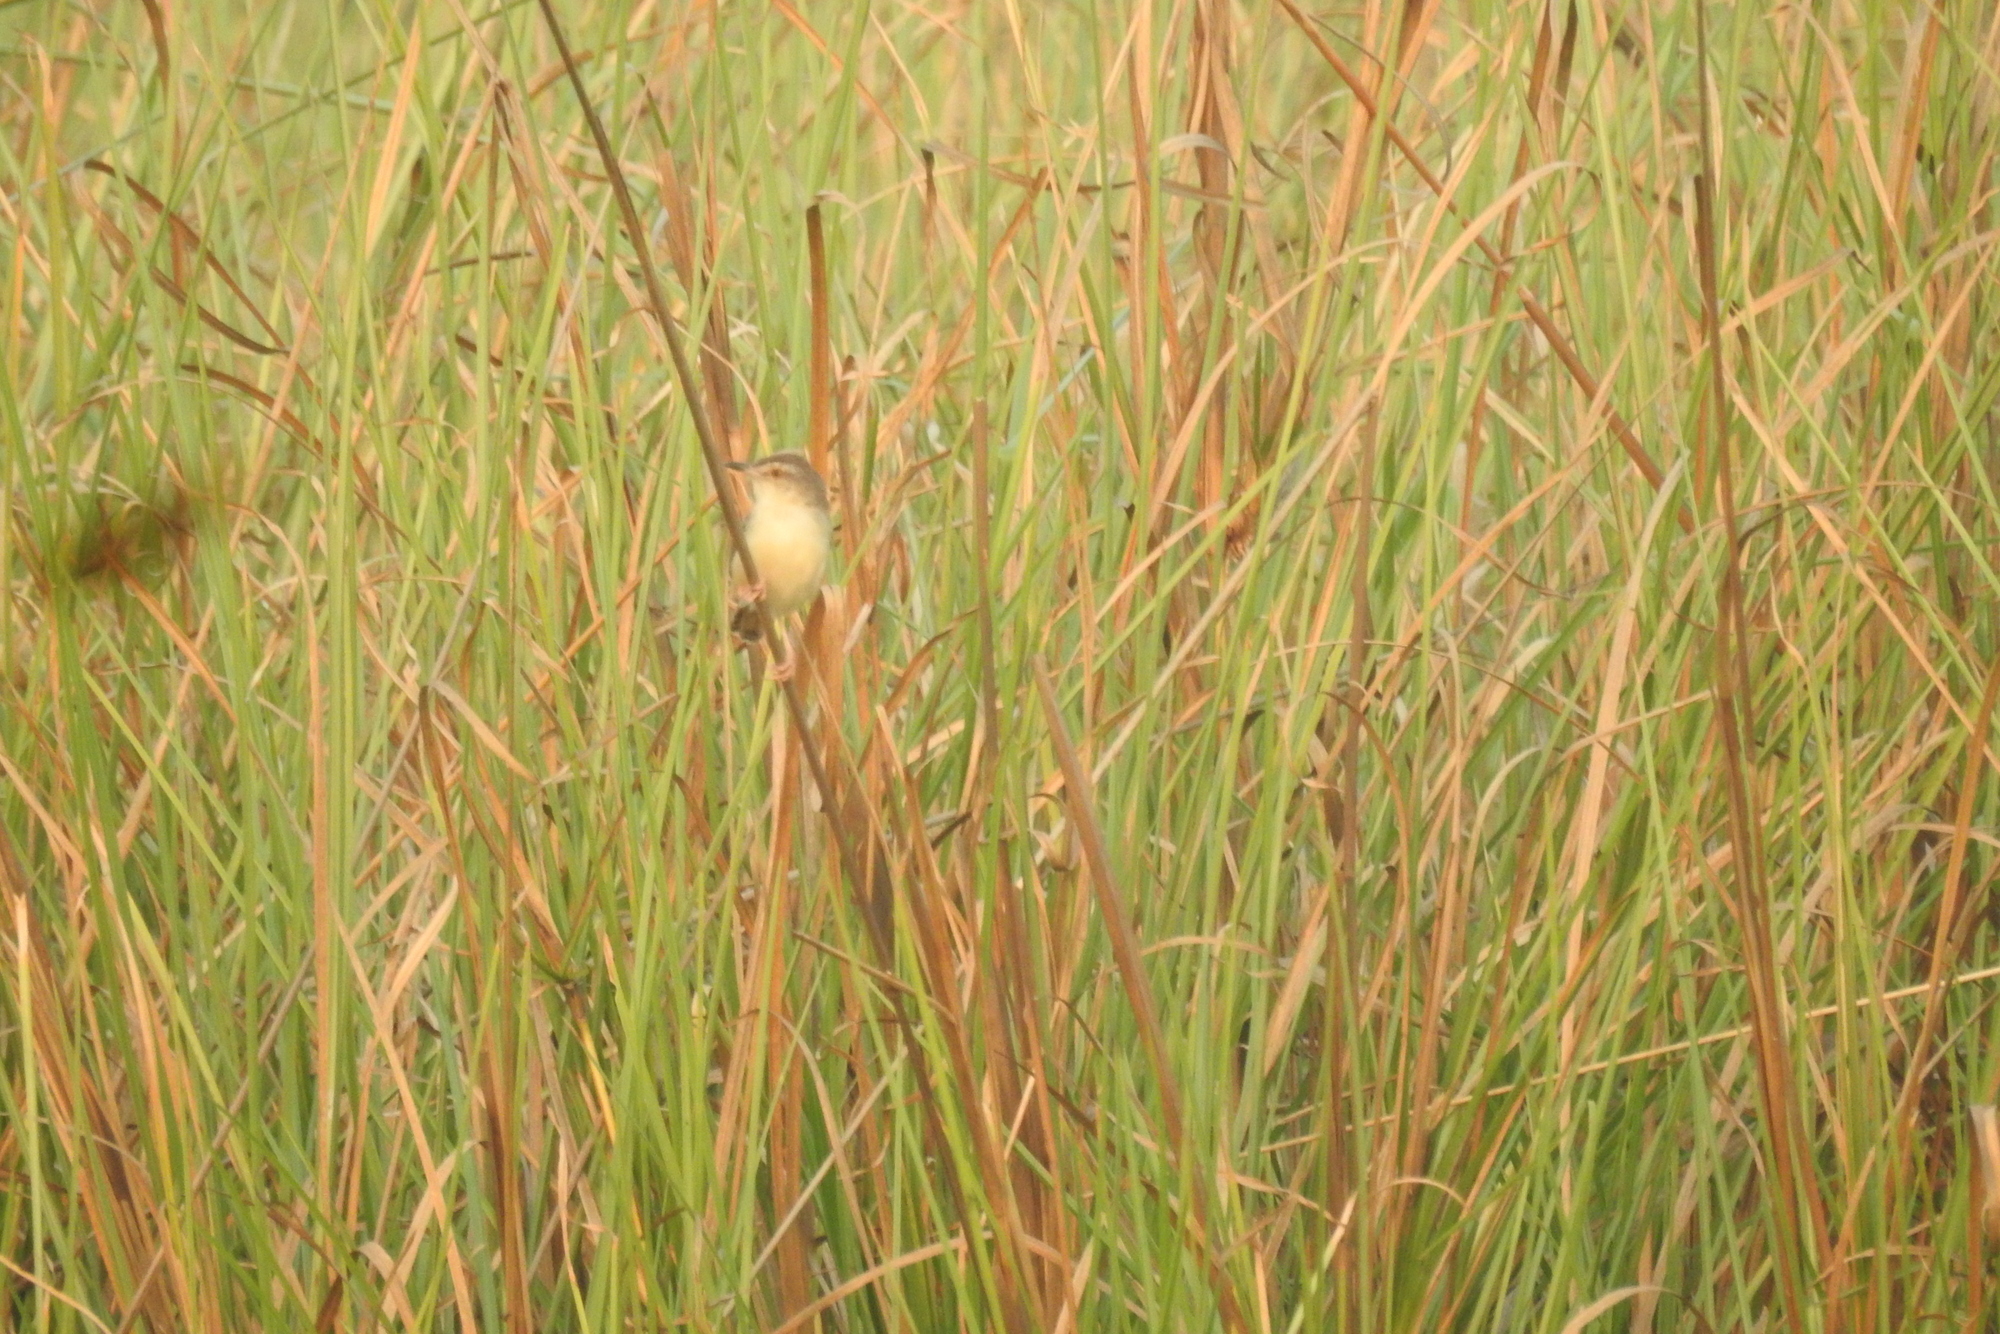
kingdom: Animalia
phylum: Chordata
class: Aves
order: Passeriformes
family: Cisticolidae
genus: Prinia
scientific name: Prinia inornata
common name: Plain prinia
